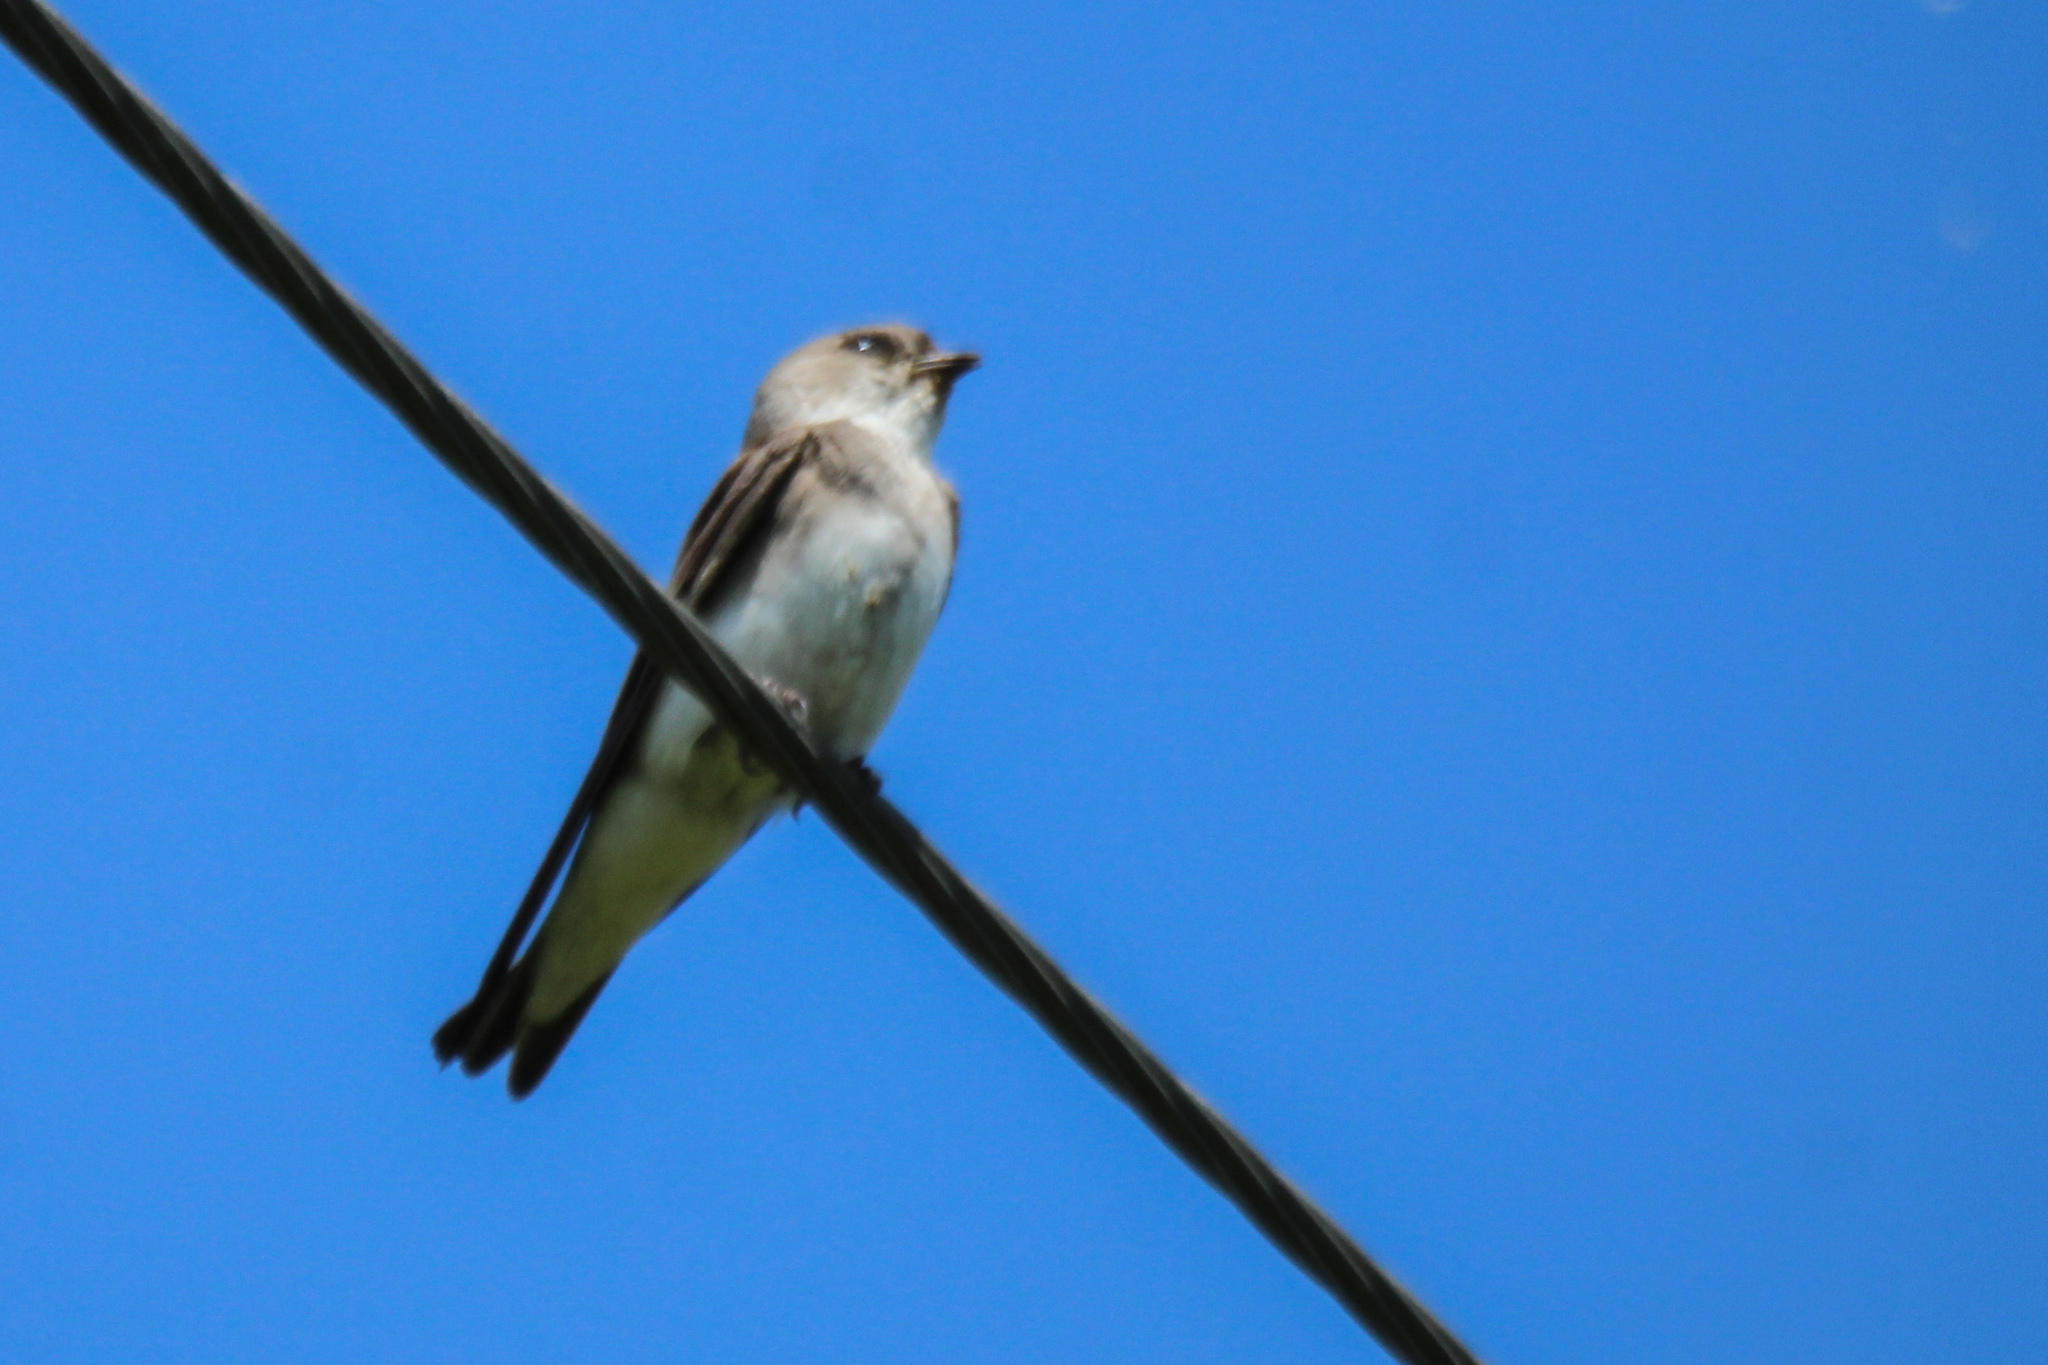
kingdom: Animalia
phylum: Chordata
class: Aves
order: Passeriformes
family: Hirundinidae
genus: Riparia
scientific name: Riparia diluta
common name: Pale martin
